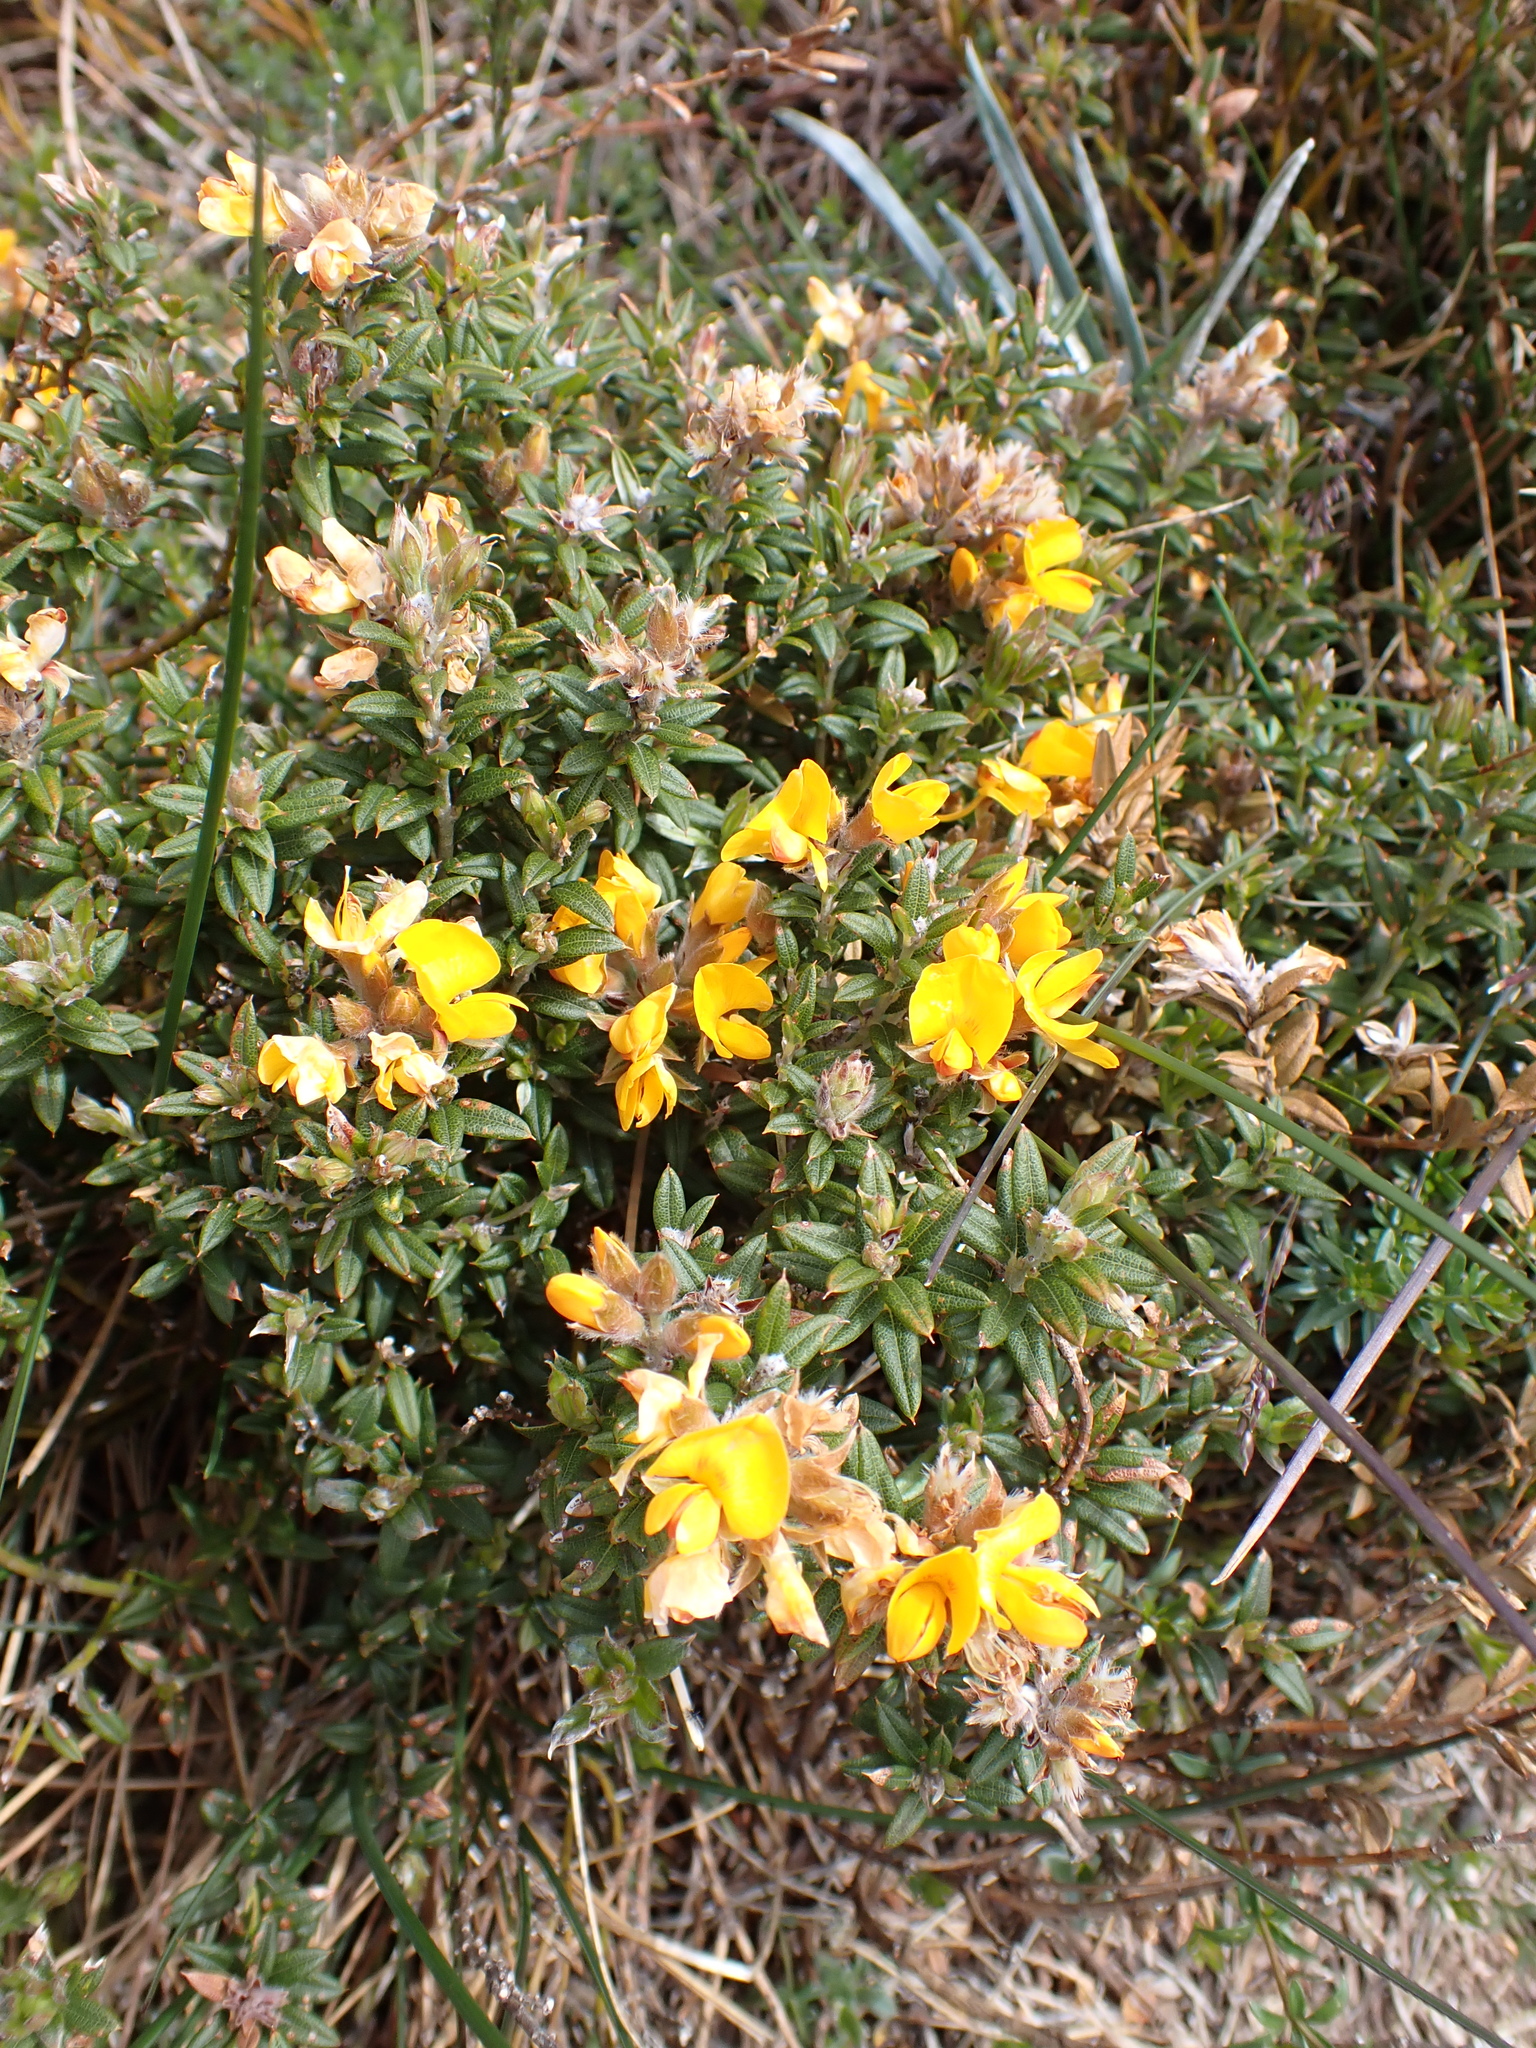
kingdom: Plantae
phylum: Tracheophyta
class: Magnoliopsida
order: Fabales
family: Fabaceae
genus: Oxylobium
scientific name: Oxylobium ellipticum
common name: Golden shaggy-pea
